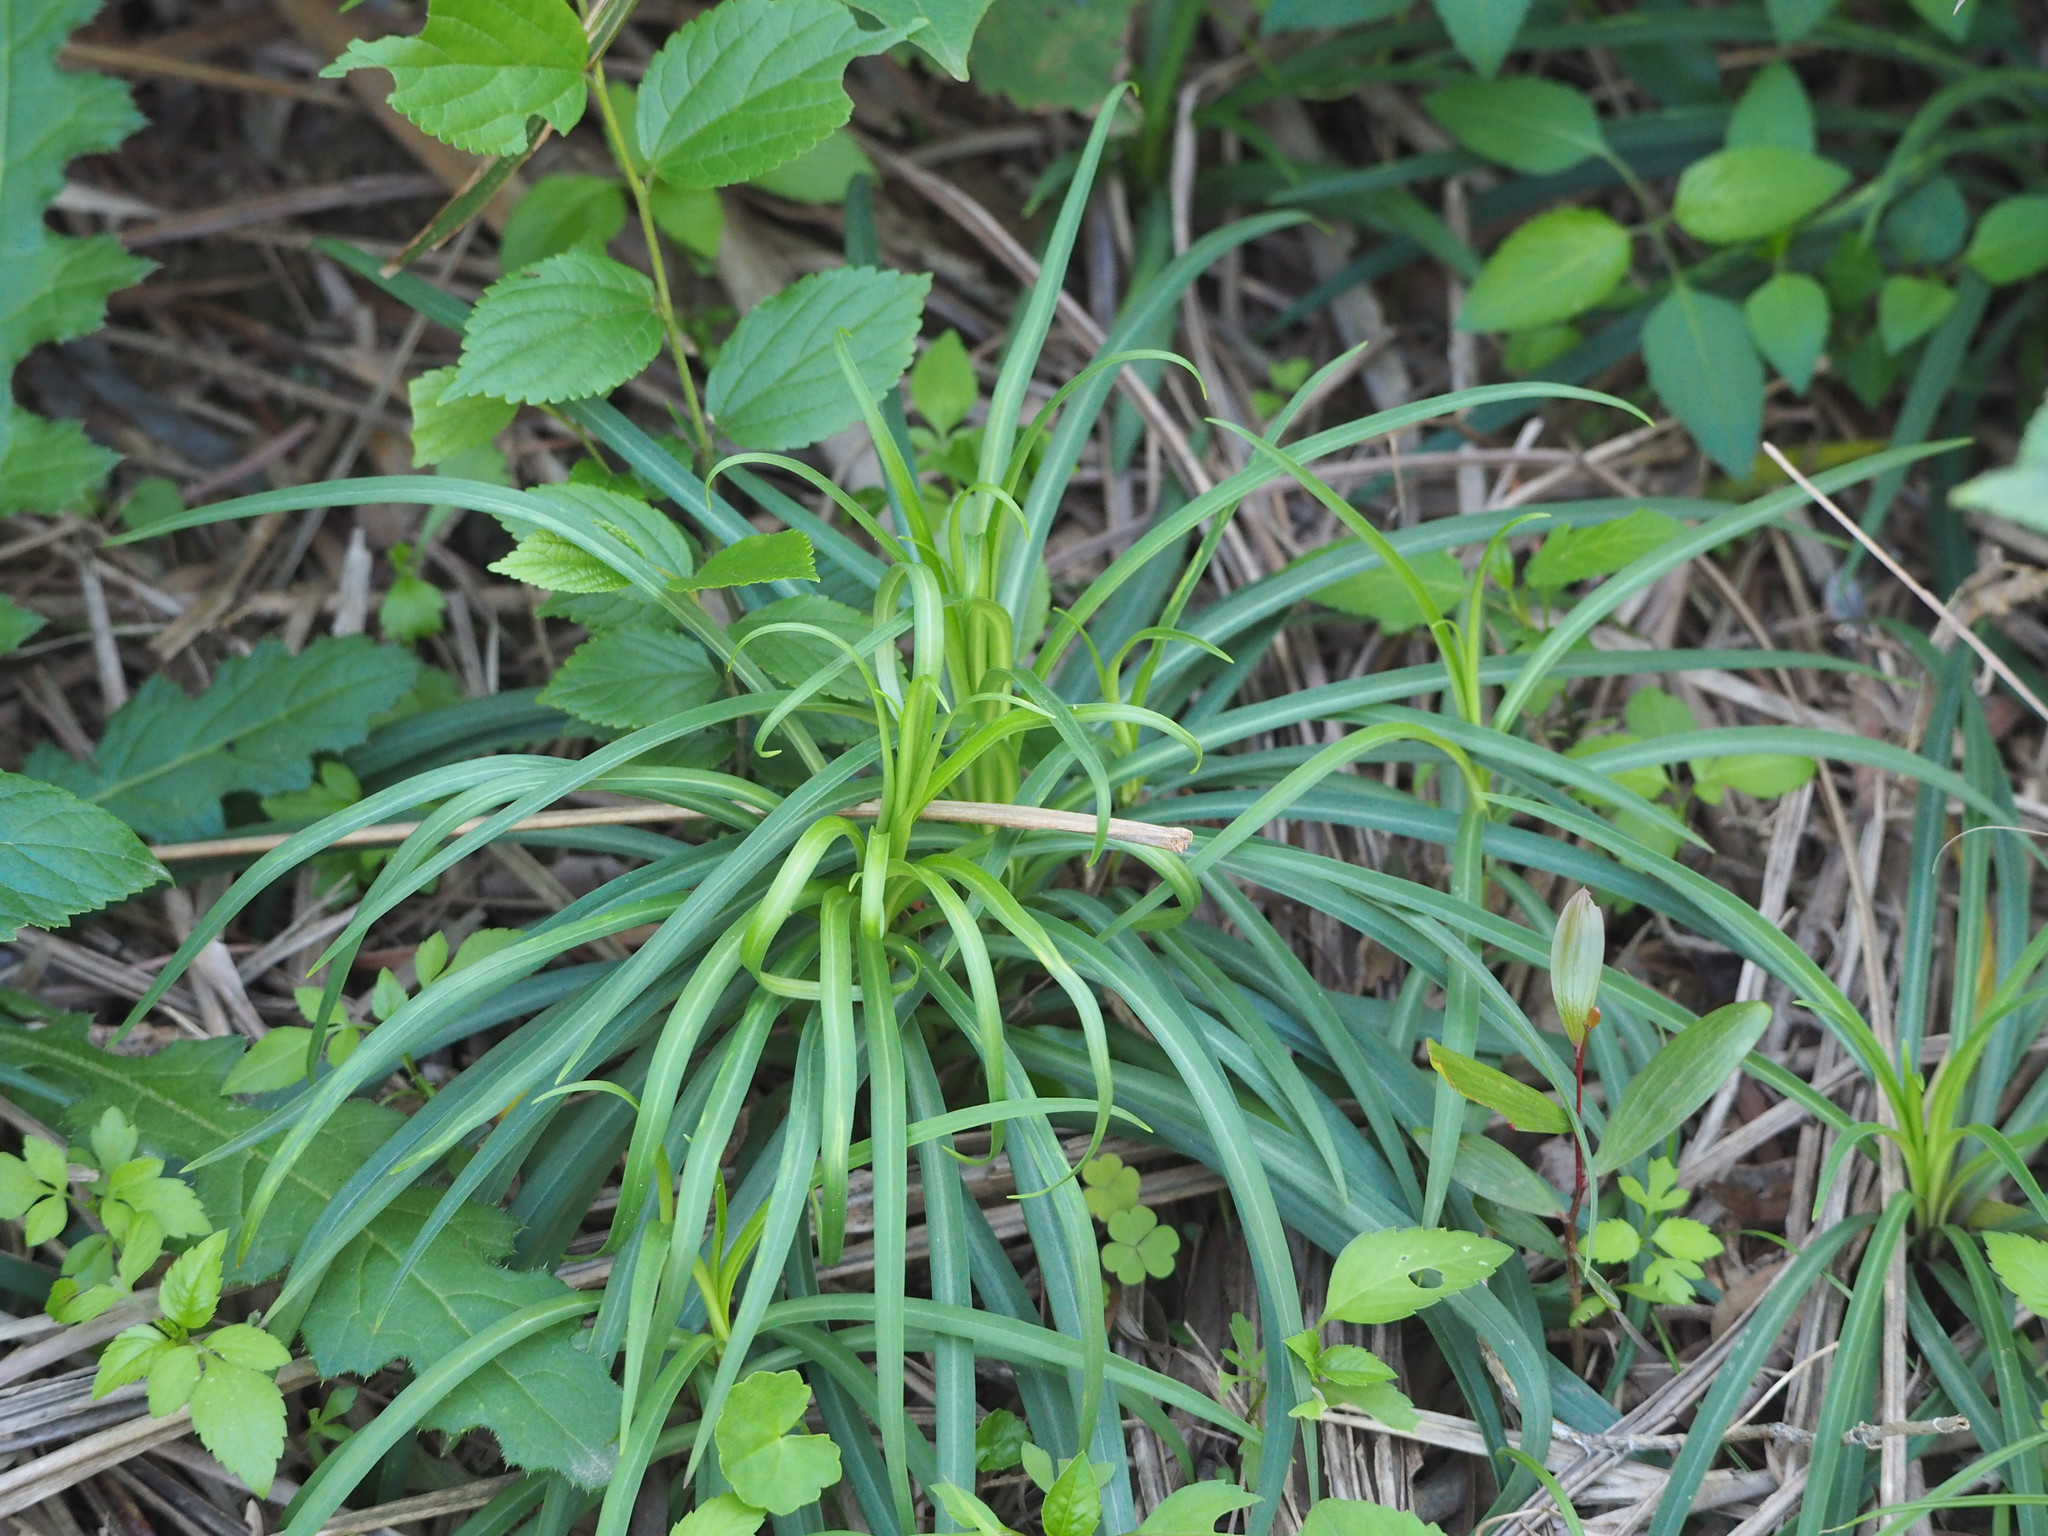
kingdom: Plantae
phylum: Tracheophyta
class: Liliopsida
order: Liliales
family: Liliaceae
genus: Lilium
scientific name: Lilium formosanum
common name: Formosa lily
